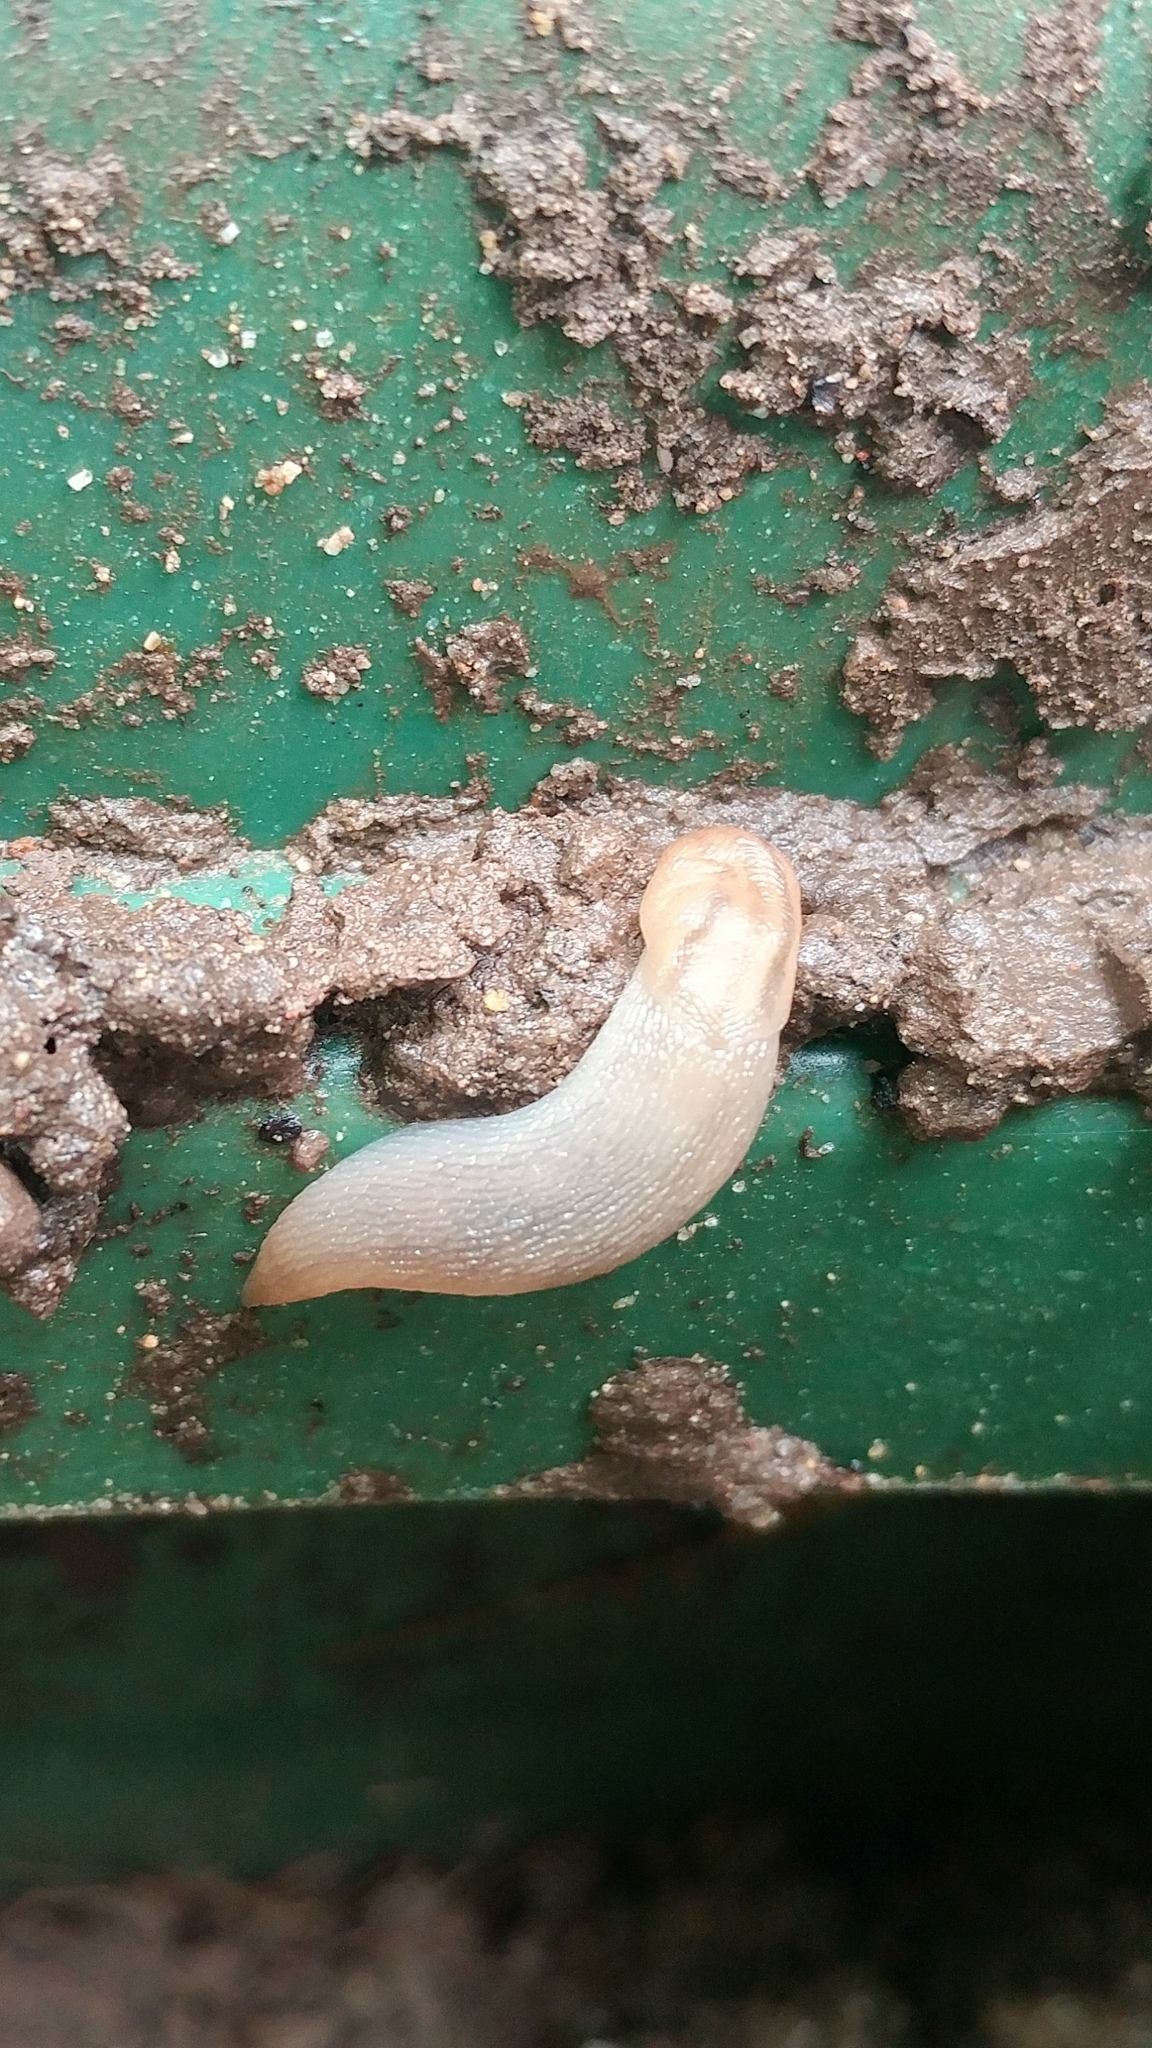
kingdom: Animalia
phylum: Mollusca
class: Gastropoda
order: Stylommatophora
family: Limacidae
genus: Ambigolimax
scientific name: Ambigolimax
